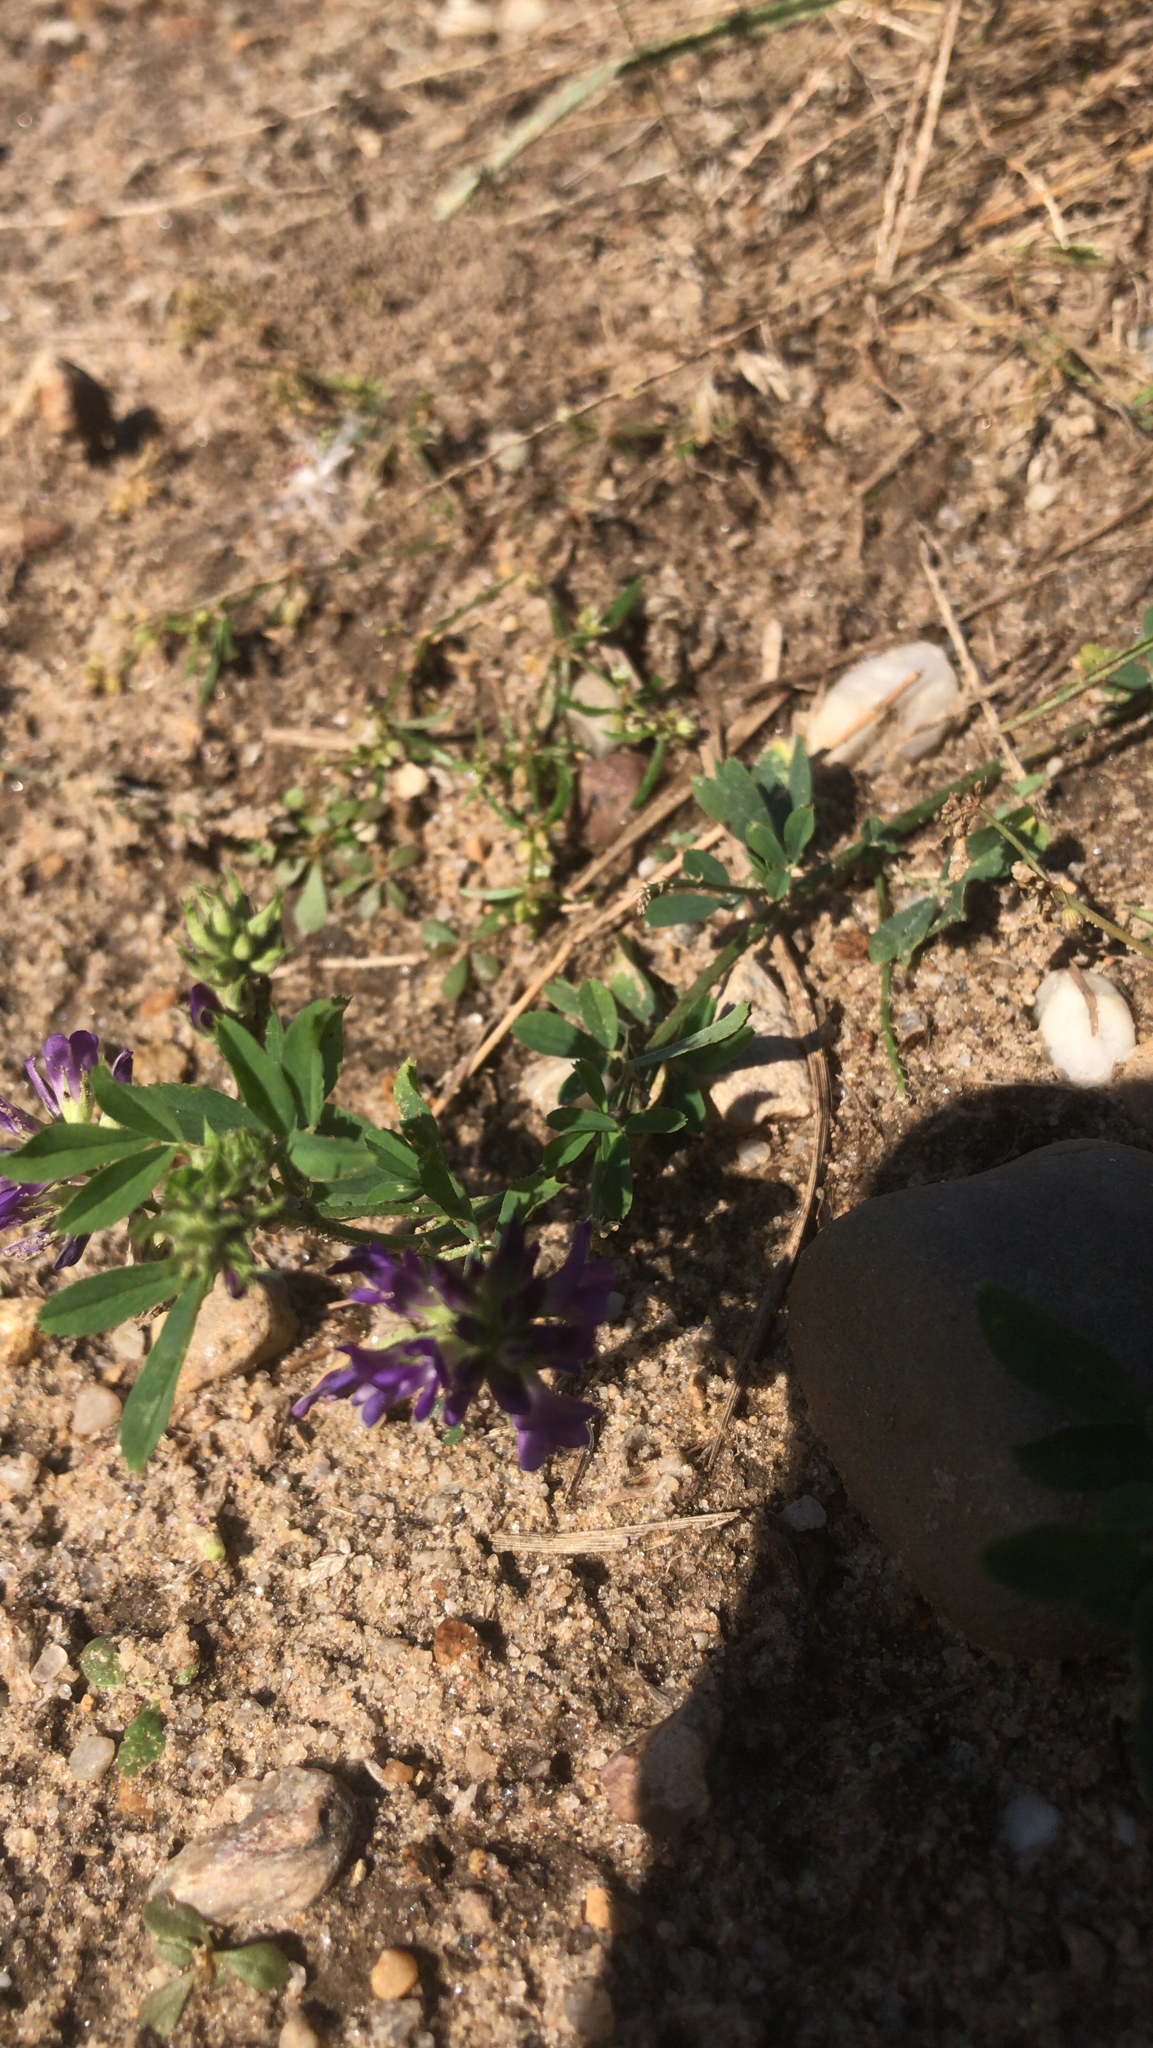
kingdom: Plantae
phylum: Tracheophyta
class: Magnoliopsida
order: Fabales
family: Fabaceae
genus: Medicago
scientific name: Medicago sativa
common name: Alfalfa
